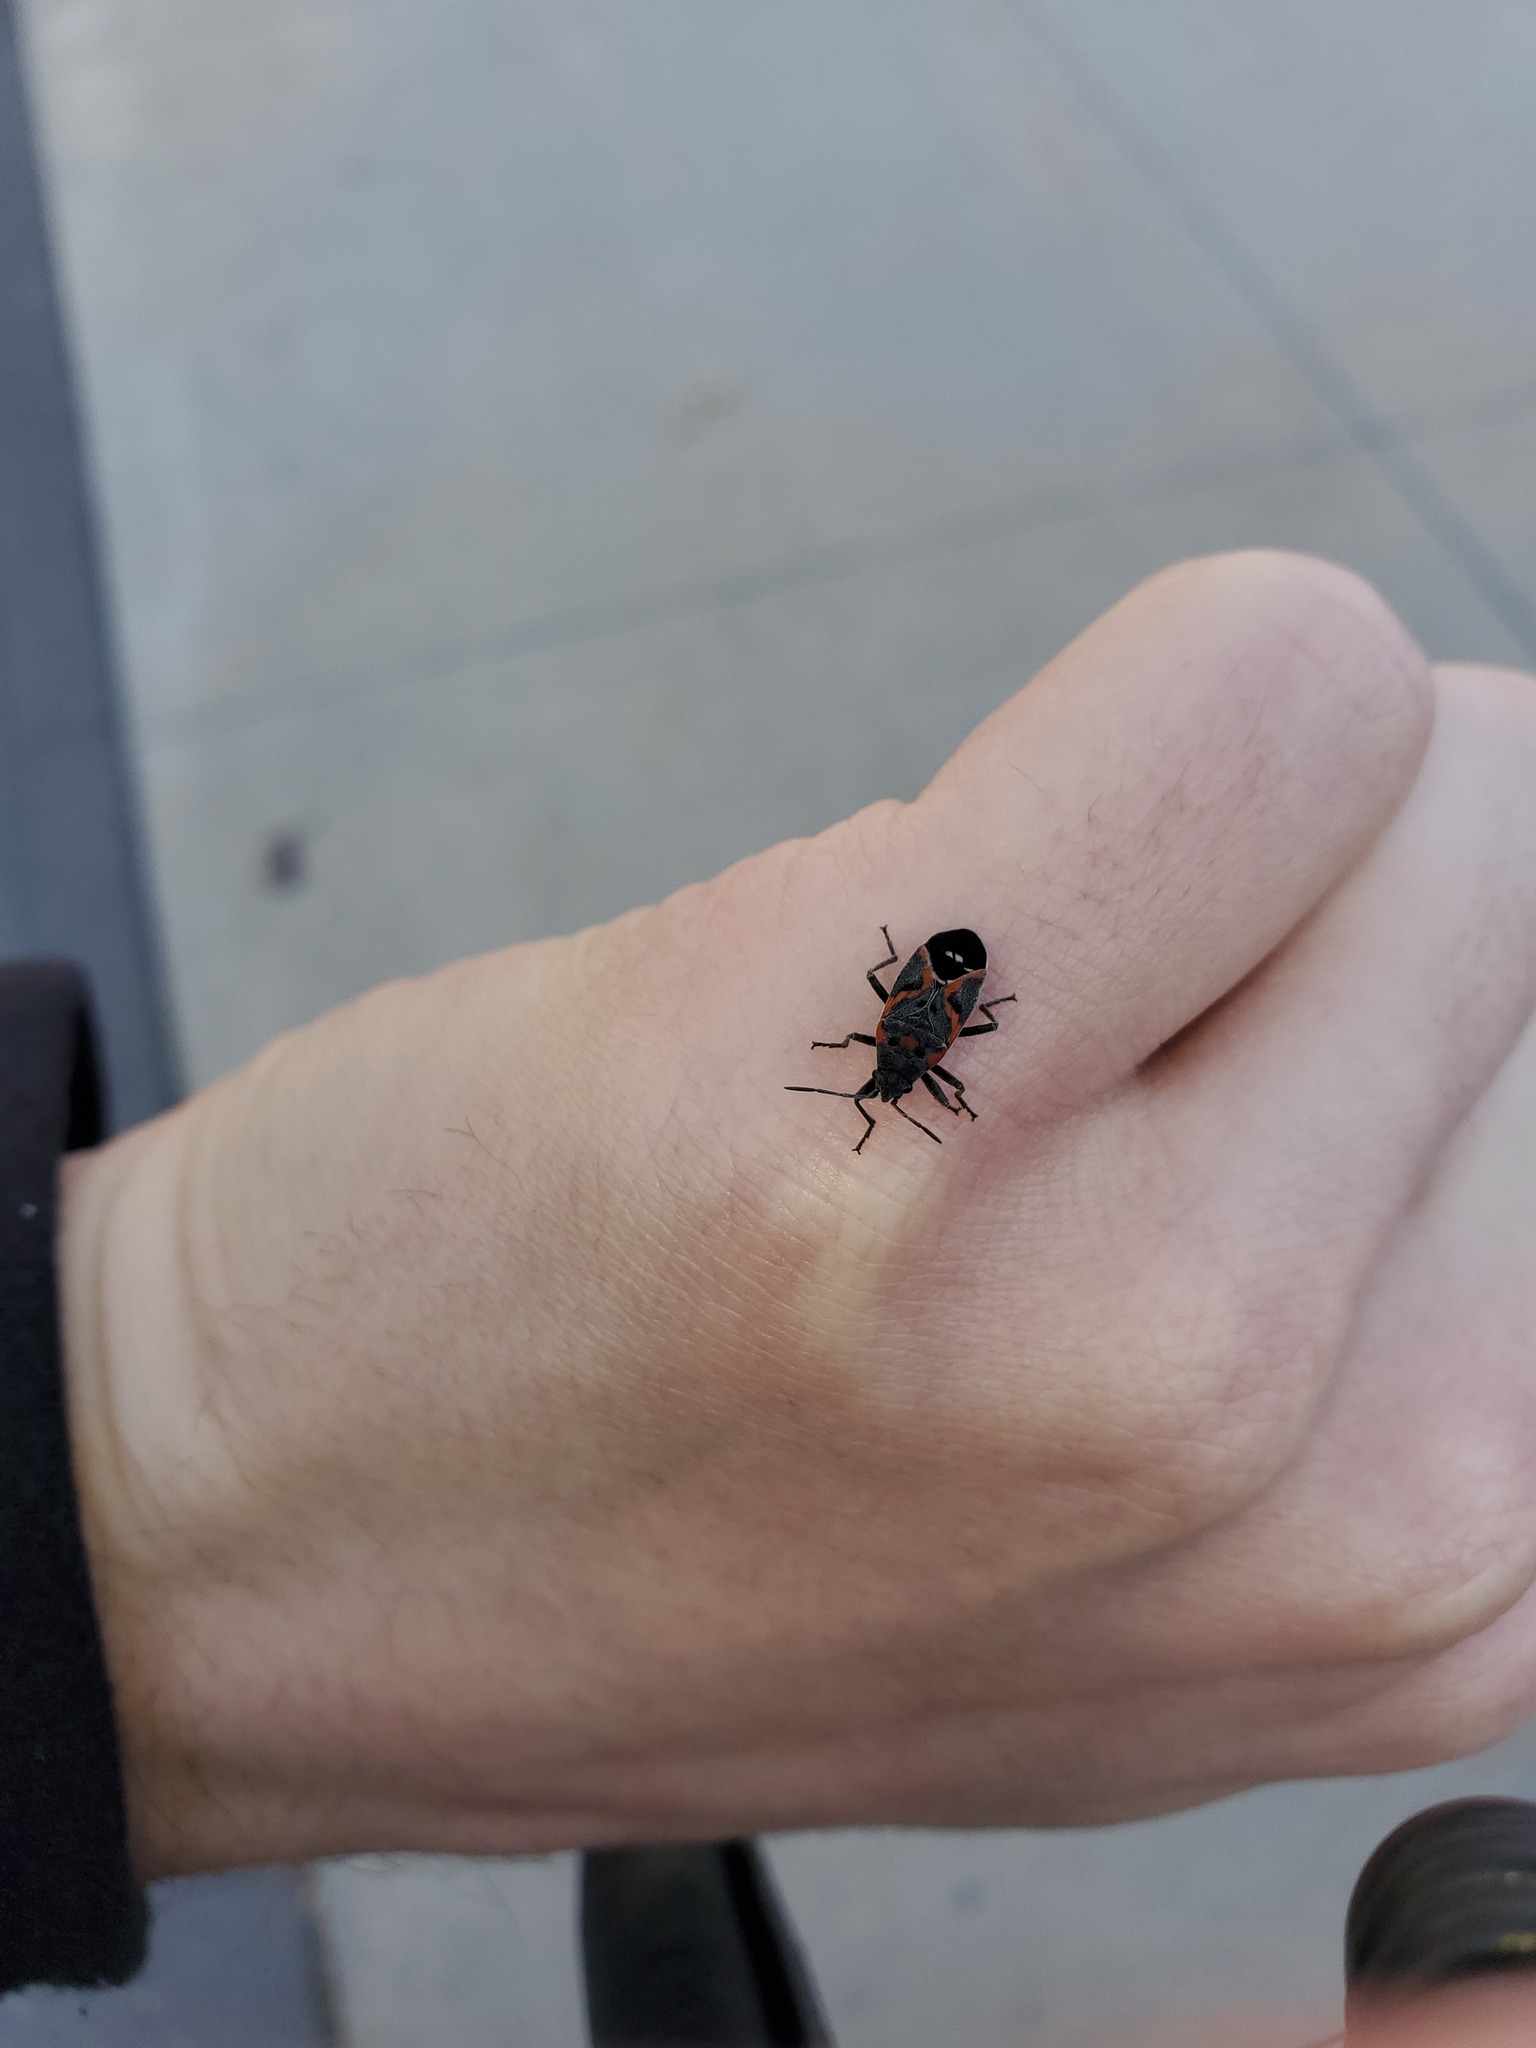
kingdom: Animalia
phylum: Arthropoda
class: Insecta
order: Hemiptera
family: Lygaeidae
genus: Lygaeus
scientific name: Lygaeus kalmii
